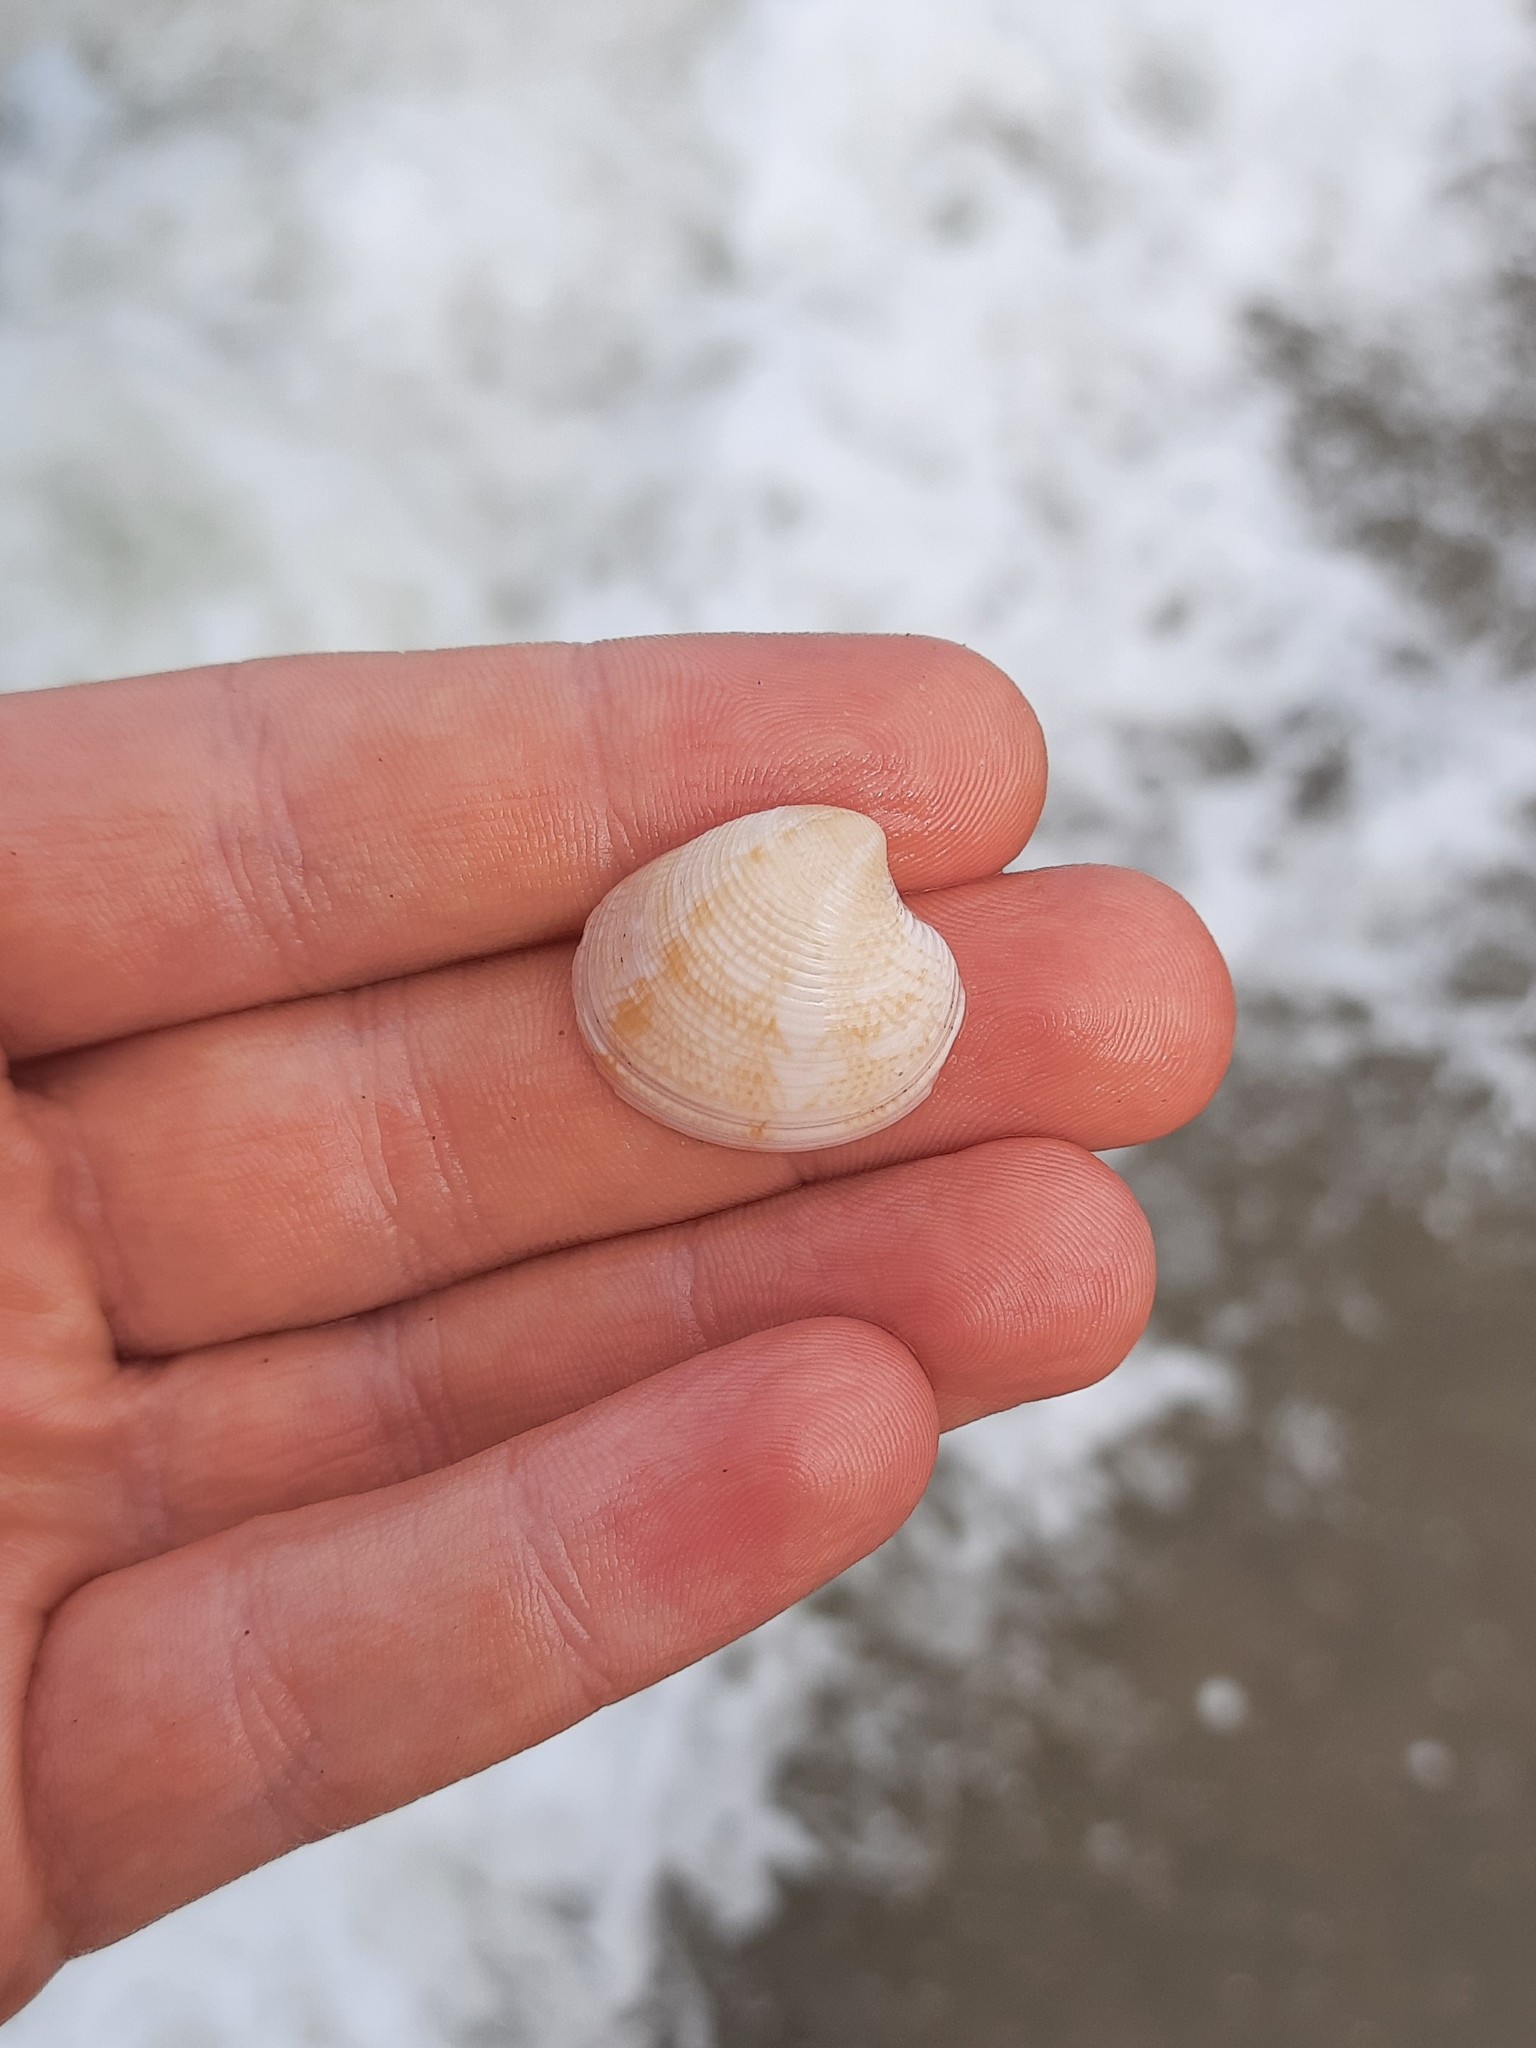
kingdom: Animalia
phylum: Mollusca
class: Bivalvia
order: Venerida
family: Veneridae
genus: Chamelea
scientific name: Chamelea gallina
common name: Chicken venus
